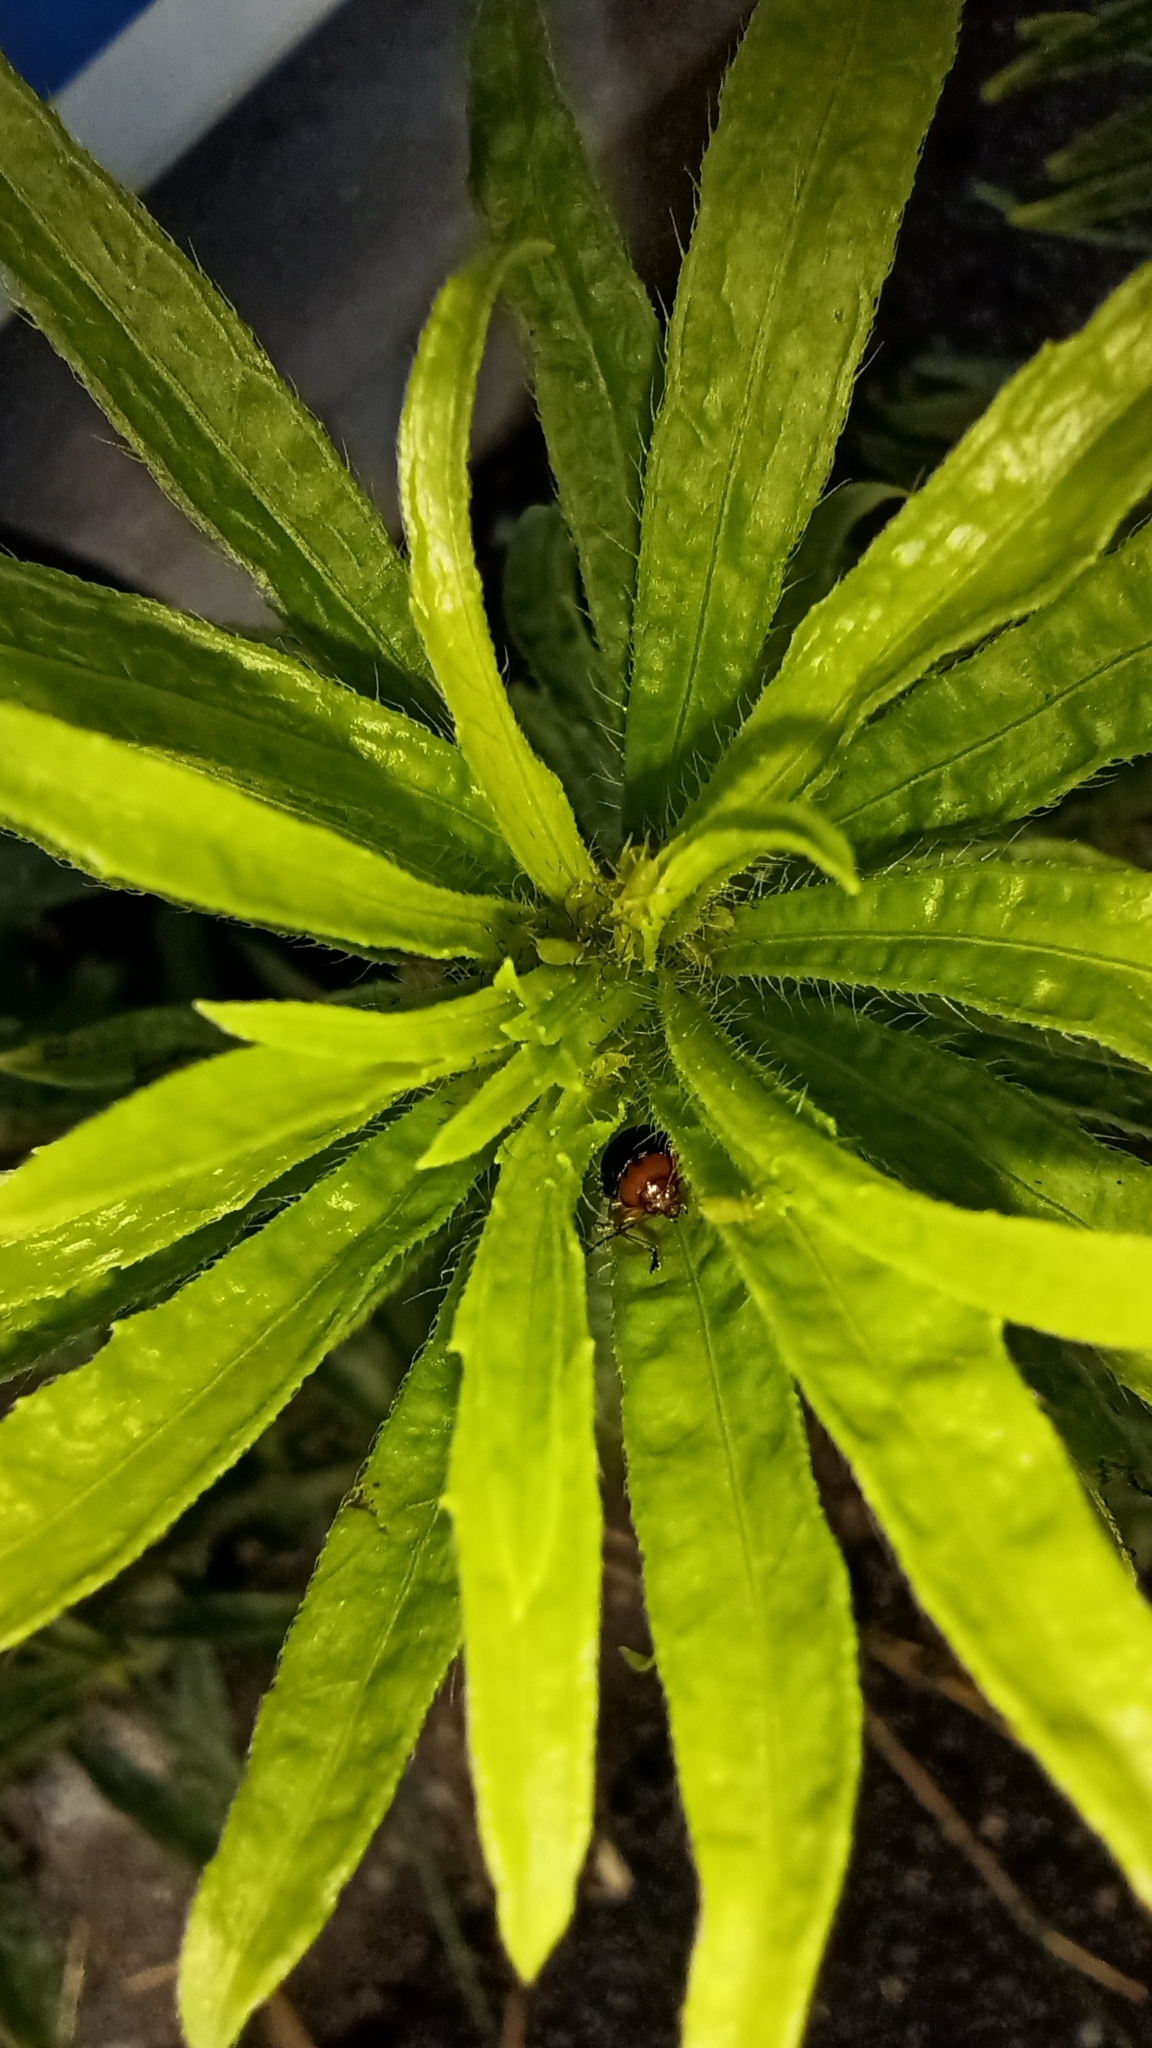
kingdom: Animalia
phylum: Arthropoda
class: Insecta
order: Coleoptera
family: Chrysomelidae
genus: Dactylispa
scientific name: Dactylispa fulvipes
